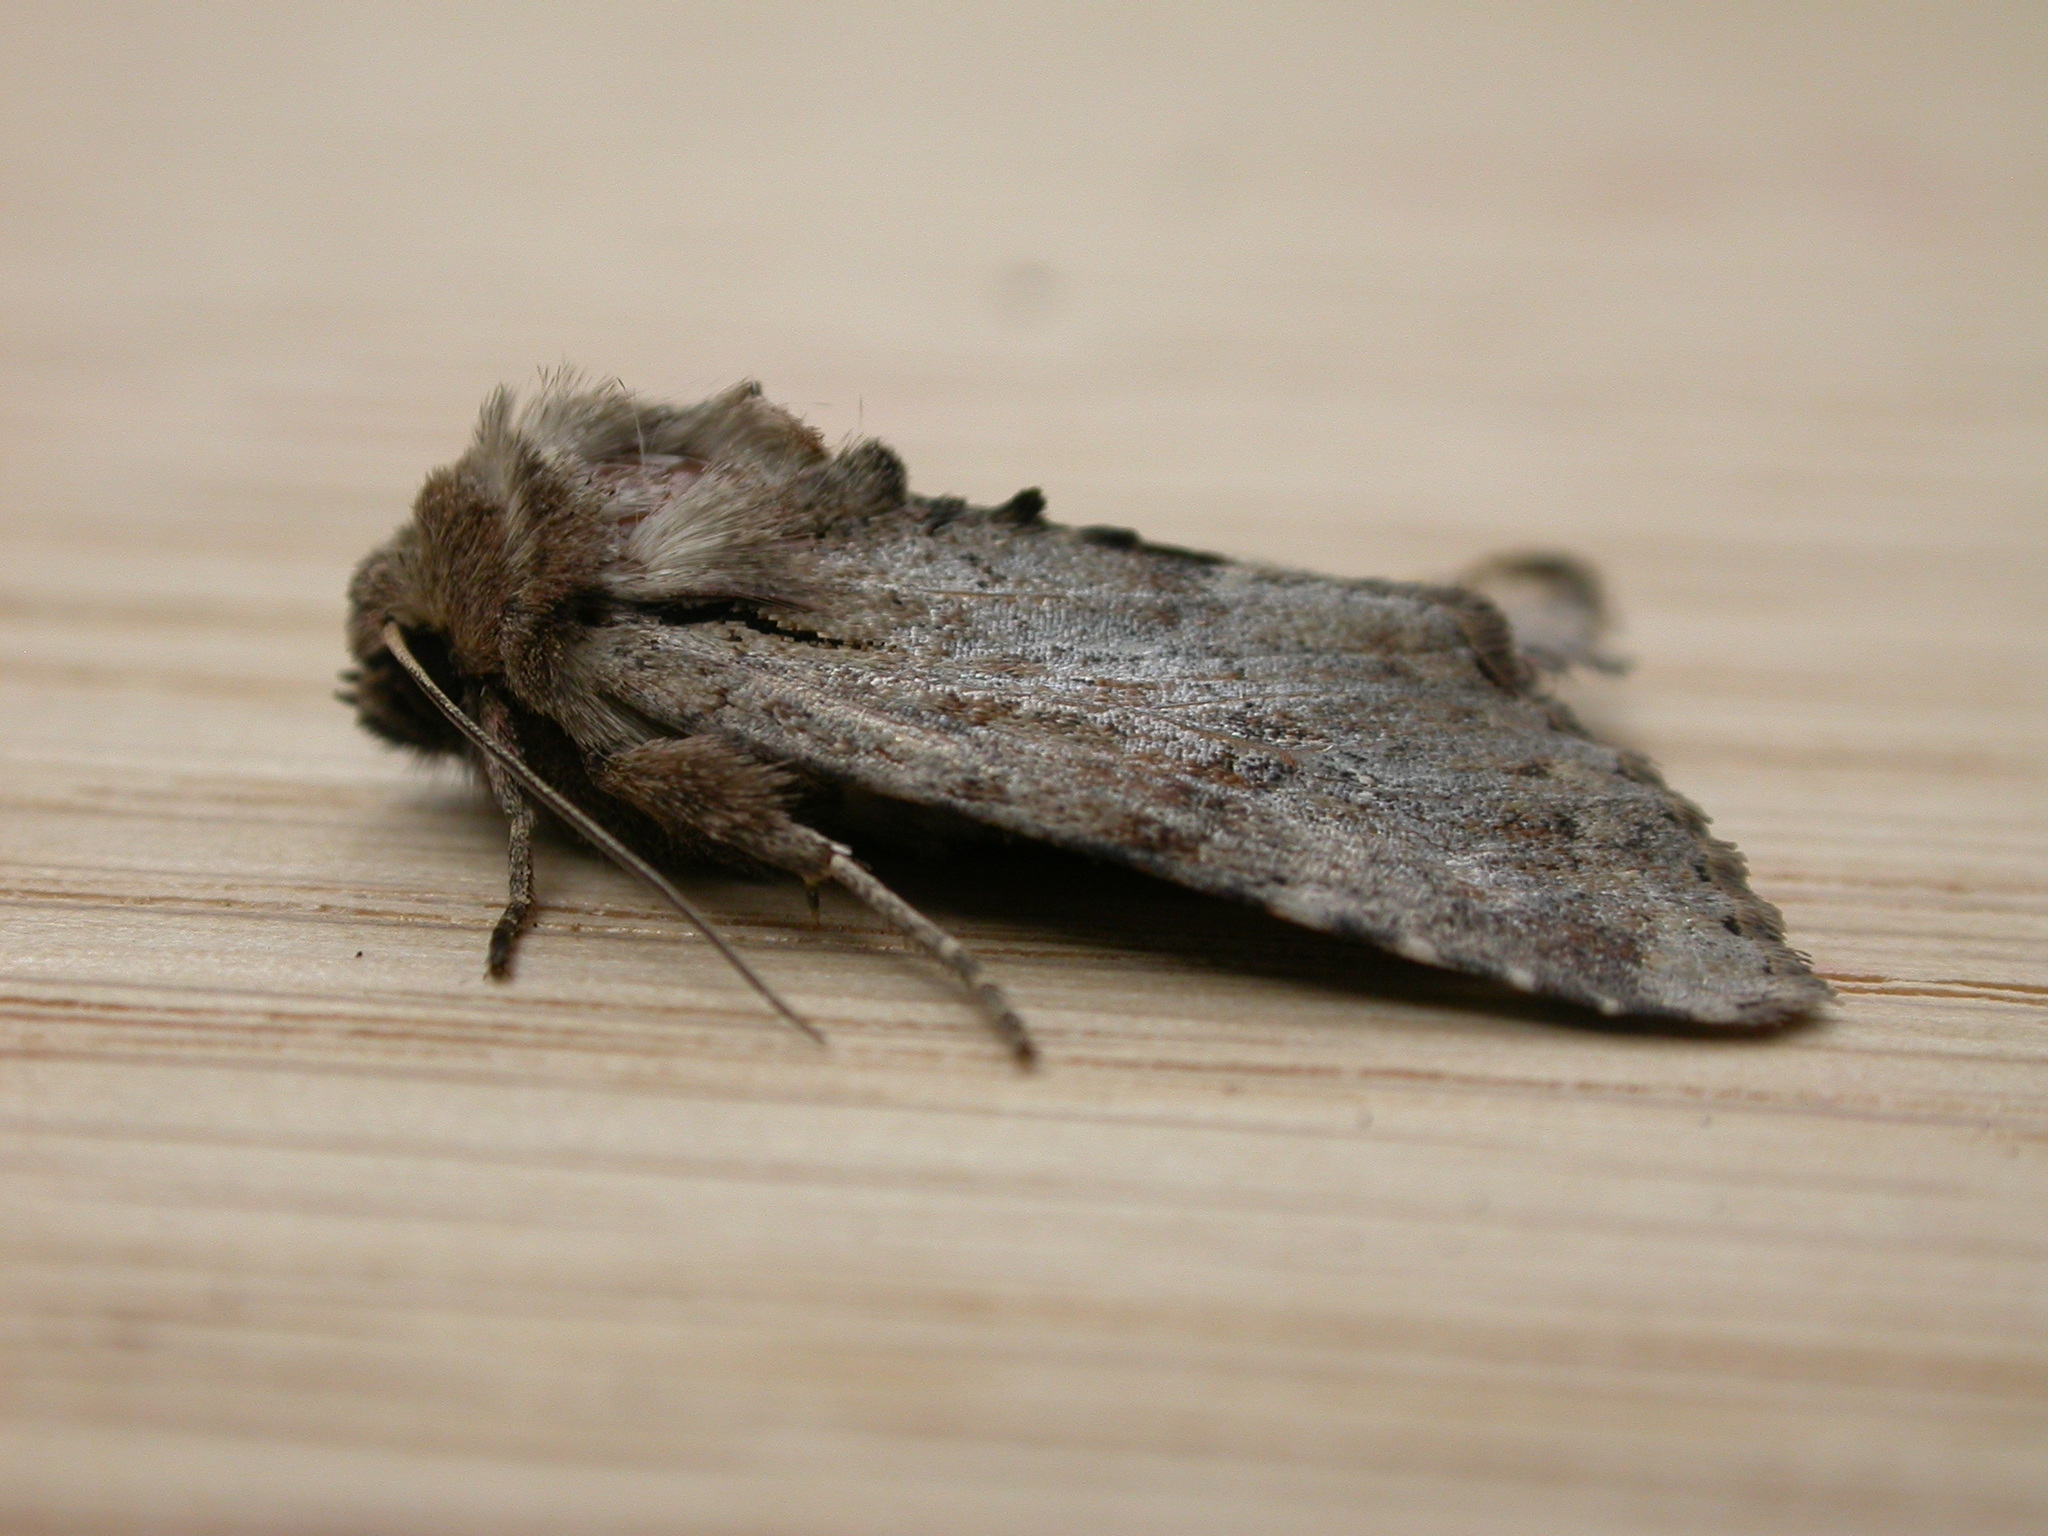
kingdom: Animalia
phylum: Arthropoda
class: Insecta
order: Lepidoptera
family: Noctuidae
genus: Apamea
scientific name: Apamea sordens
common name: Rustic shoulder-knot
